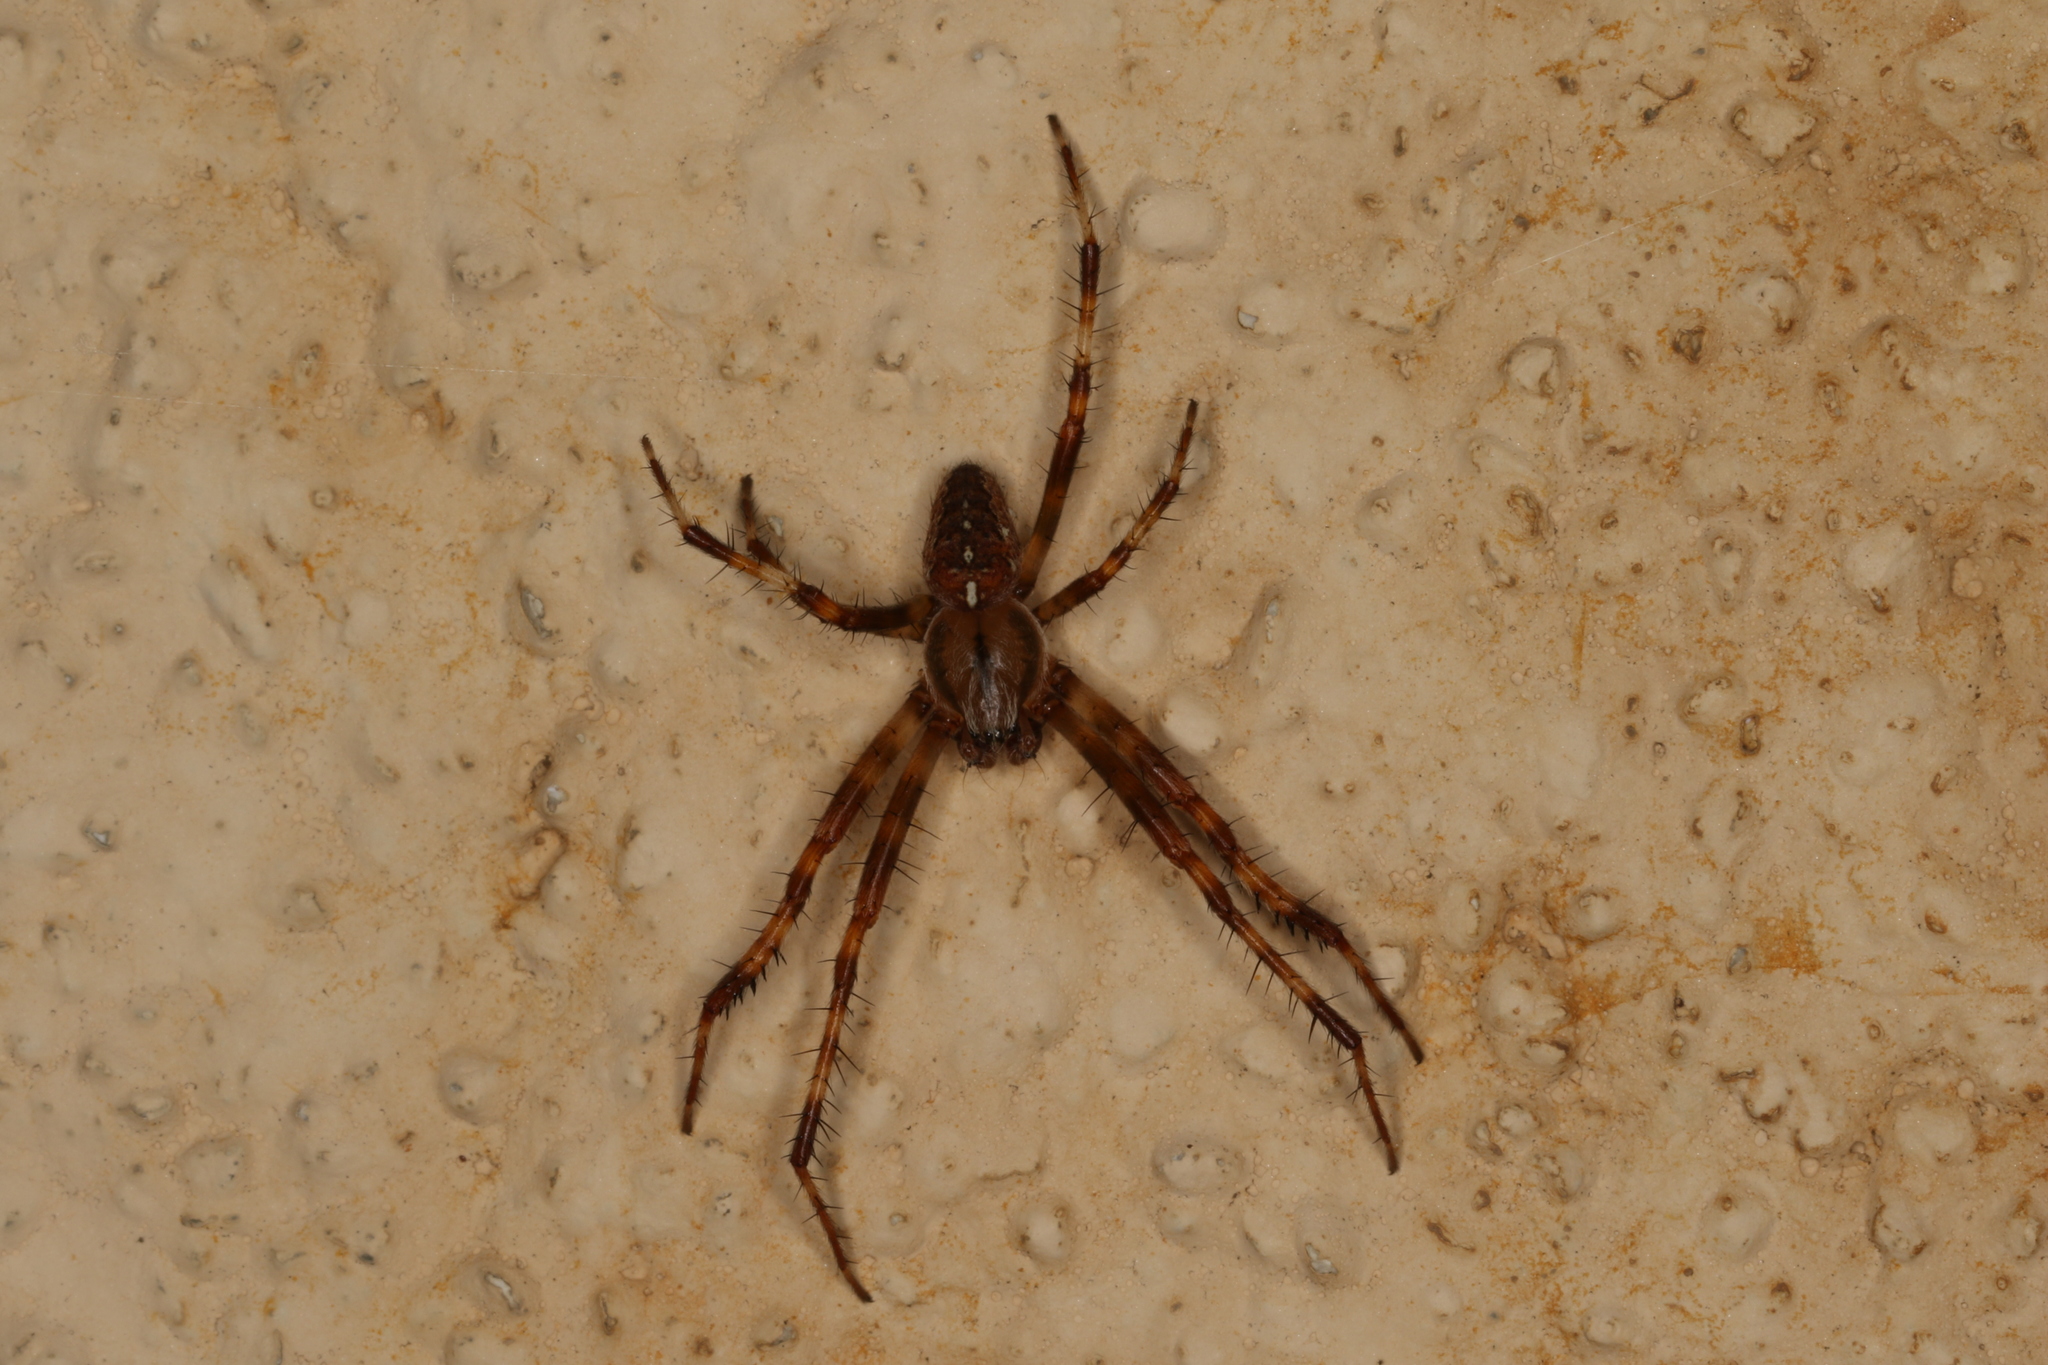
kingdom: Animalia
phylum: Arthropoda
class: Arachnida
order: Araneae
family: Araneidae
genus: Araneus
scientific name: Araneus diadematus
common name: Cross orbweaver
